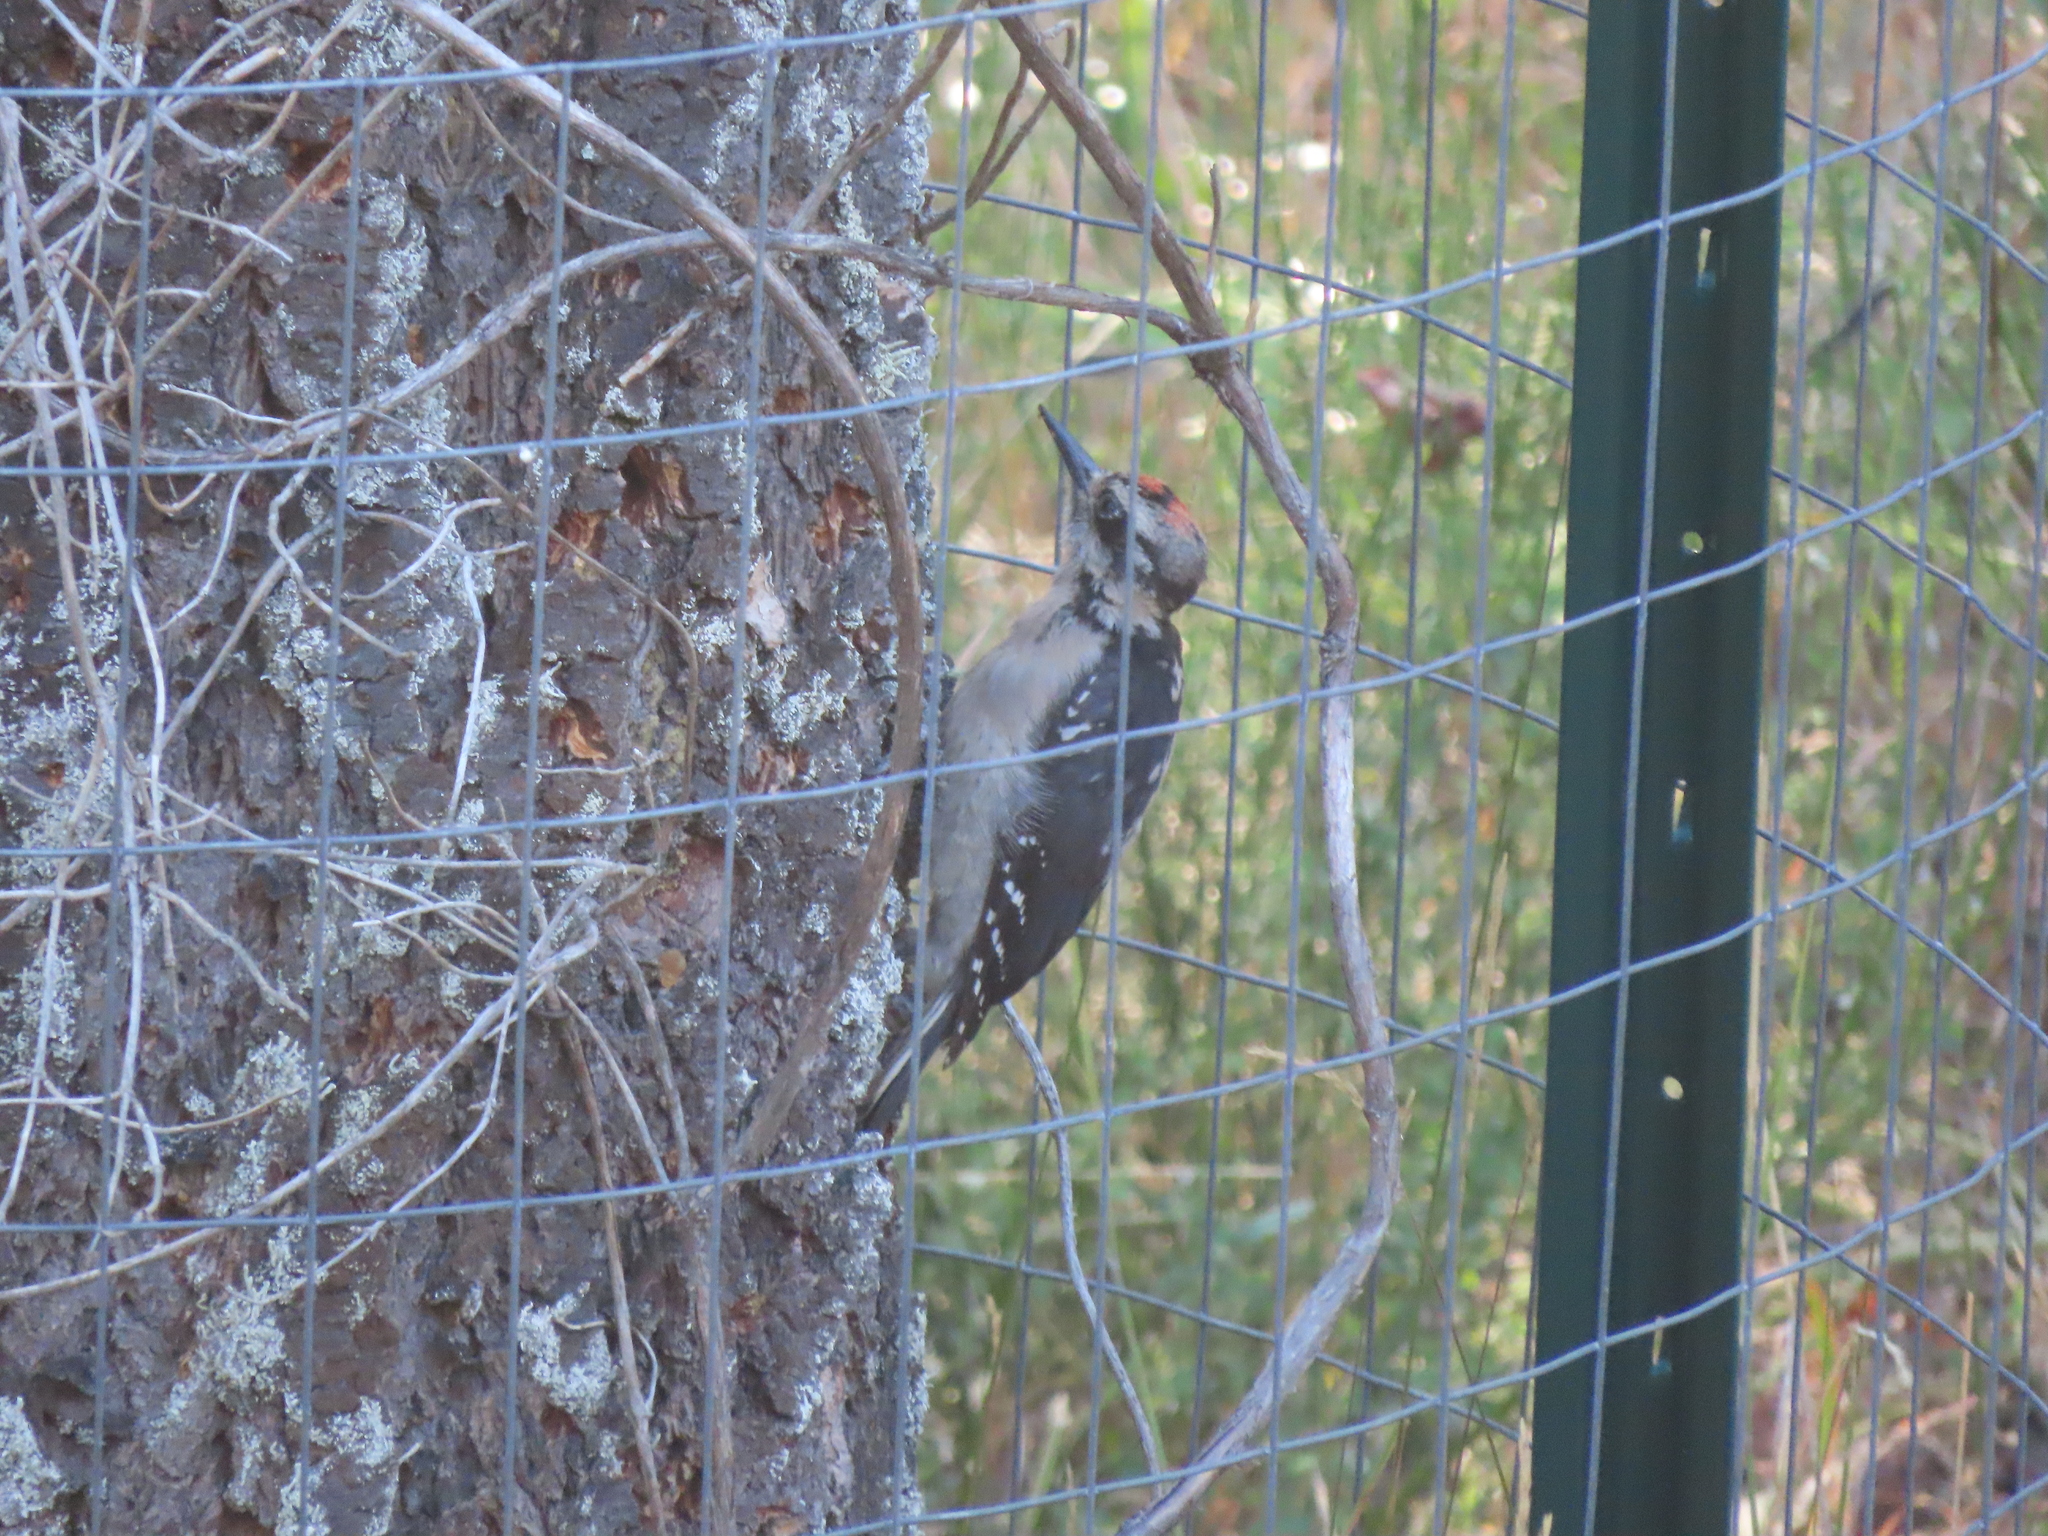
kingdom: Animalia
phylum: Chordata
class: Aves
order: Piciformes
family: Picidae
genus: Leuconotopicus
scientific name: Leuconotopicus villosus
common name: Hairy woodpecker
